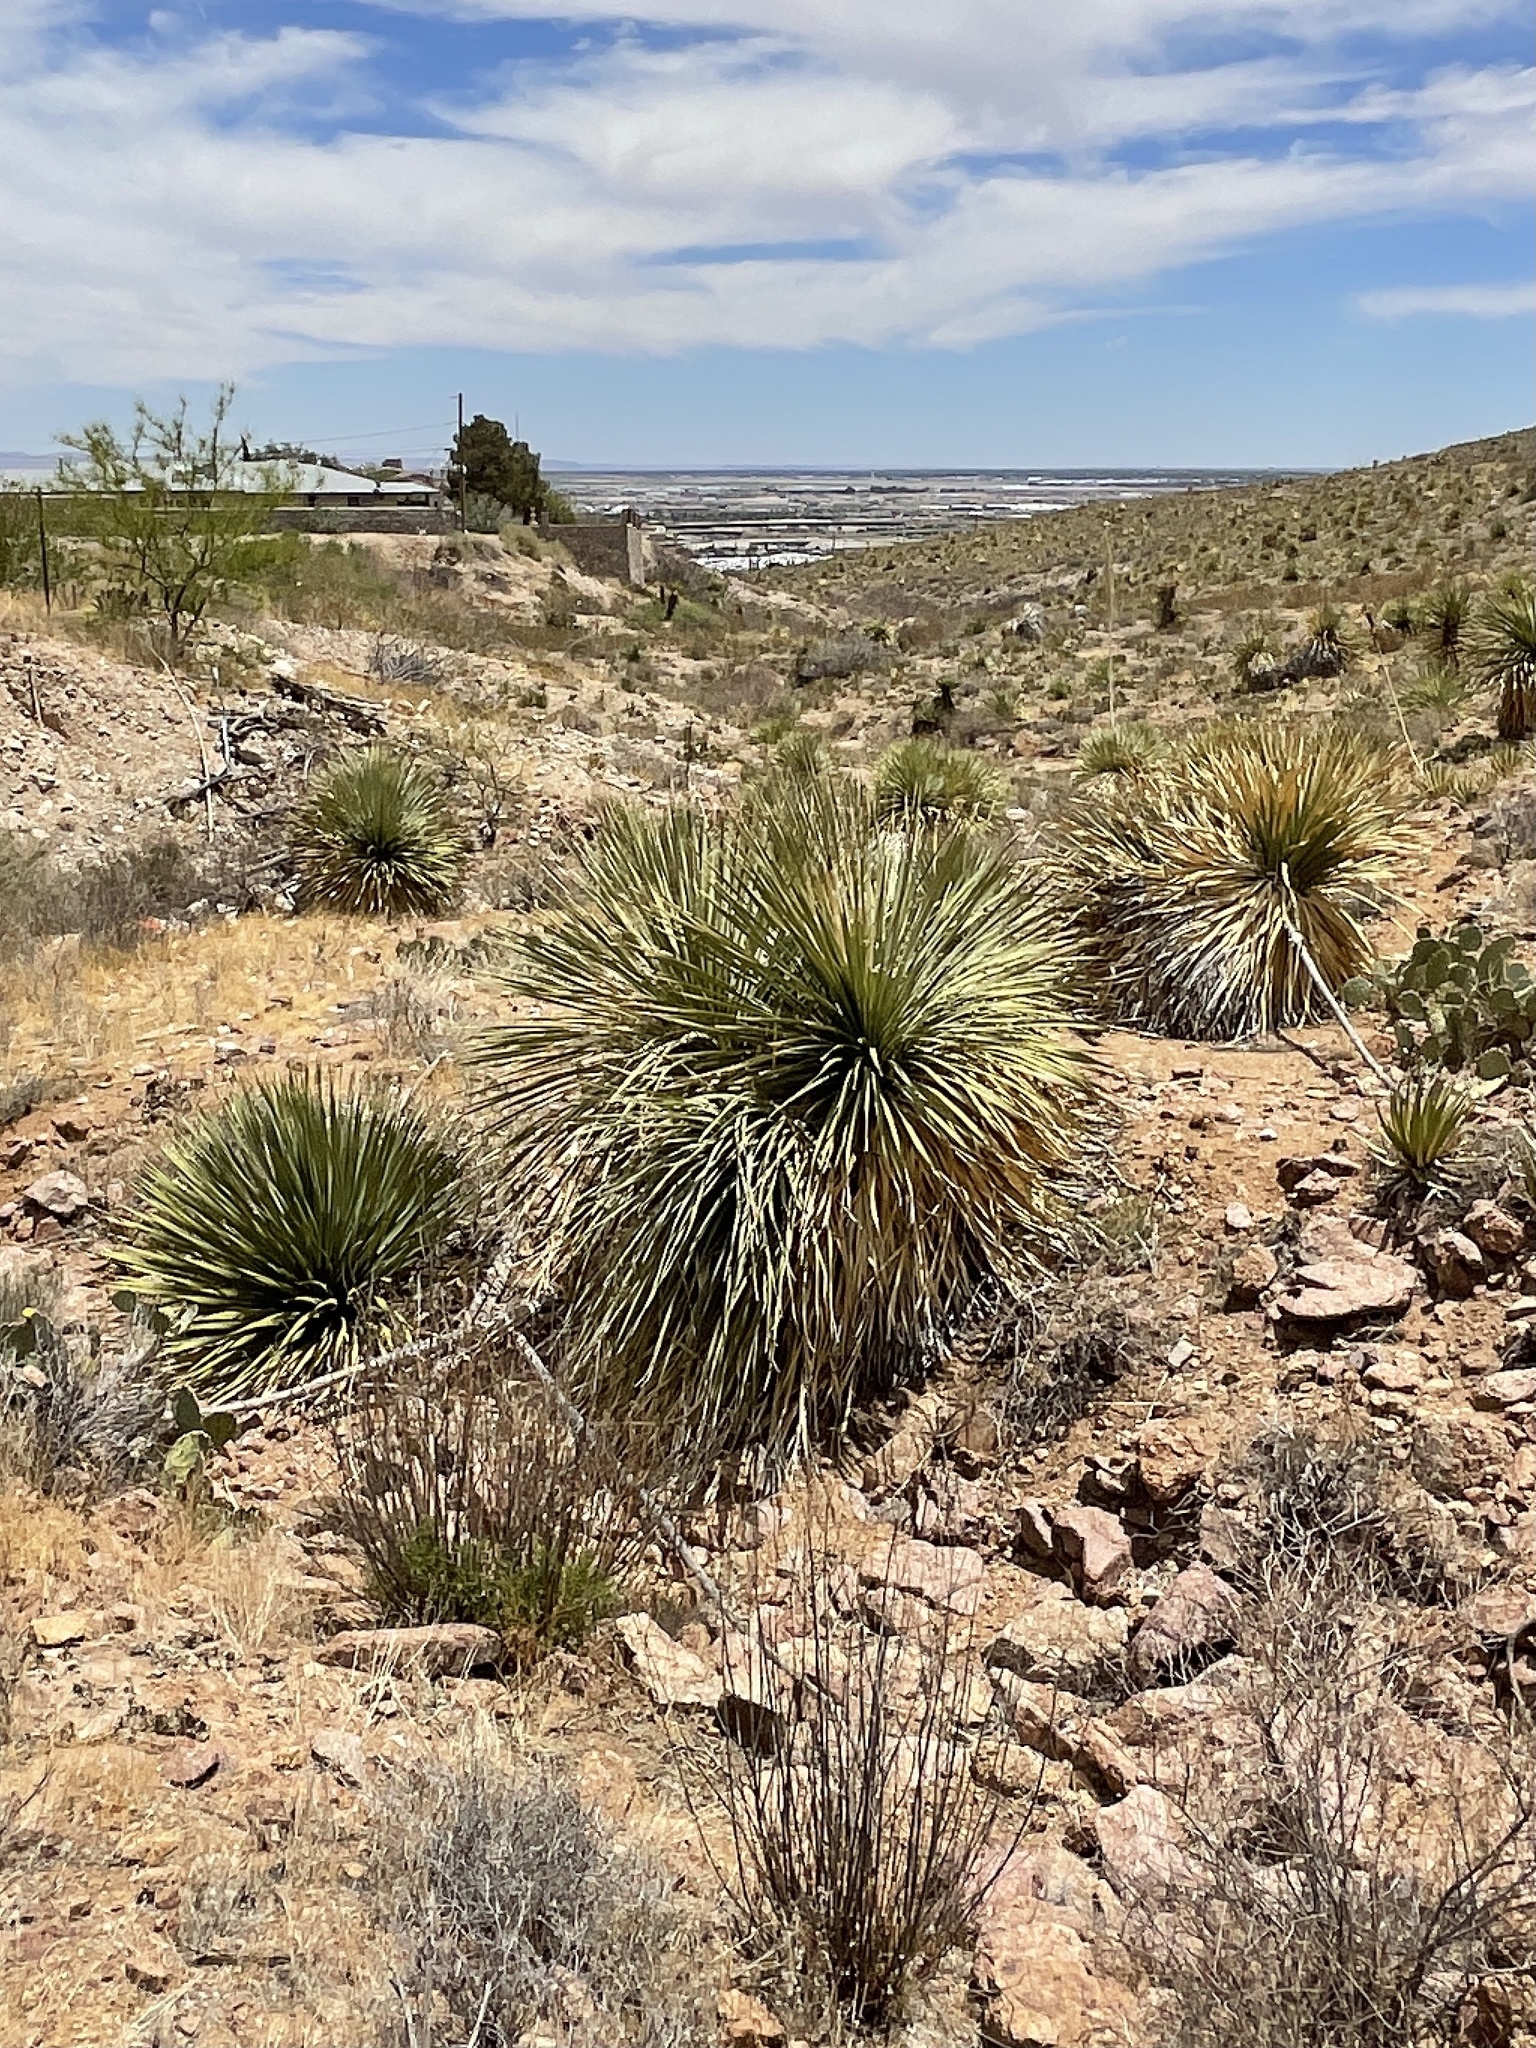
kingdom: Plantae
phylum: Tracheophyta
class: Liliopsida
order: Asparagales
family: Asparagaceae
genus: Dasylirion
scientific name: Dasylirion wheeleri
